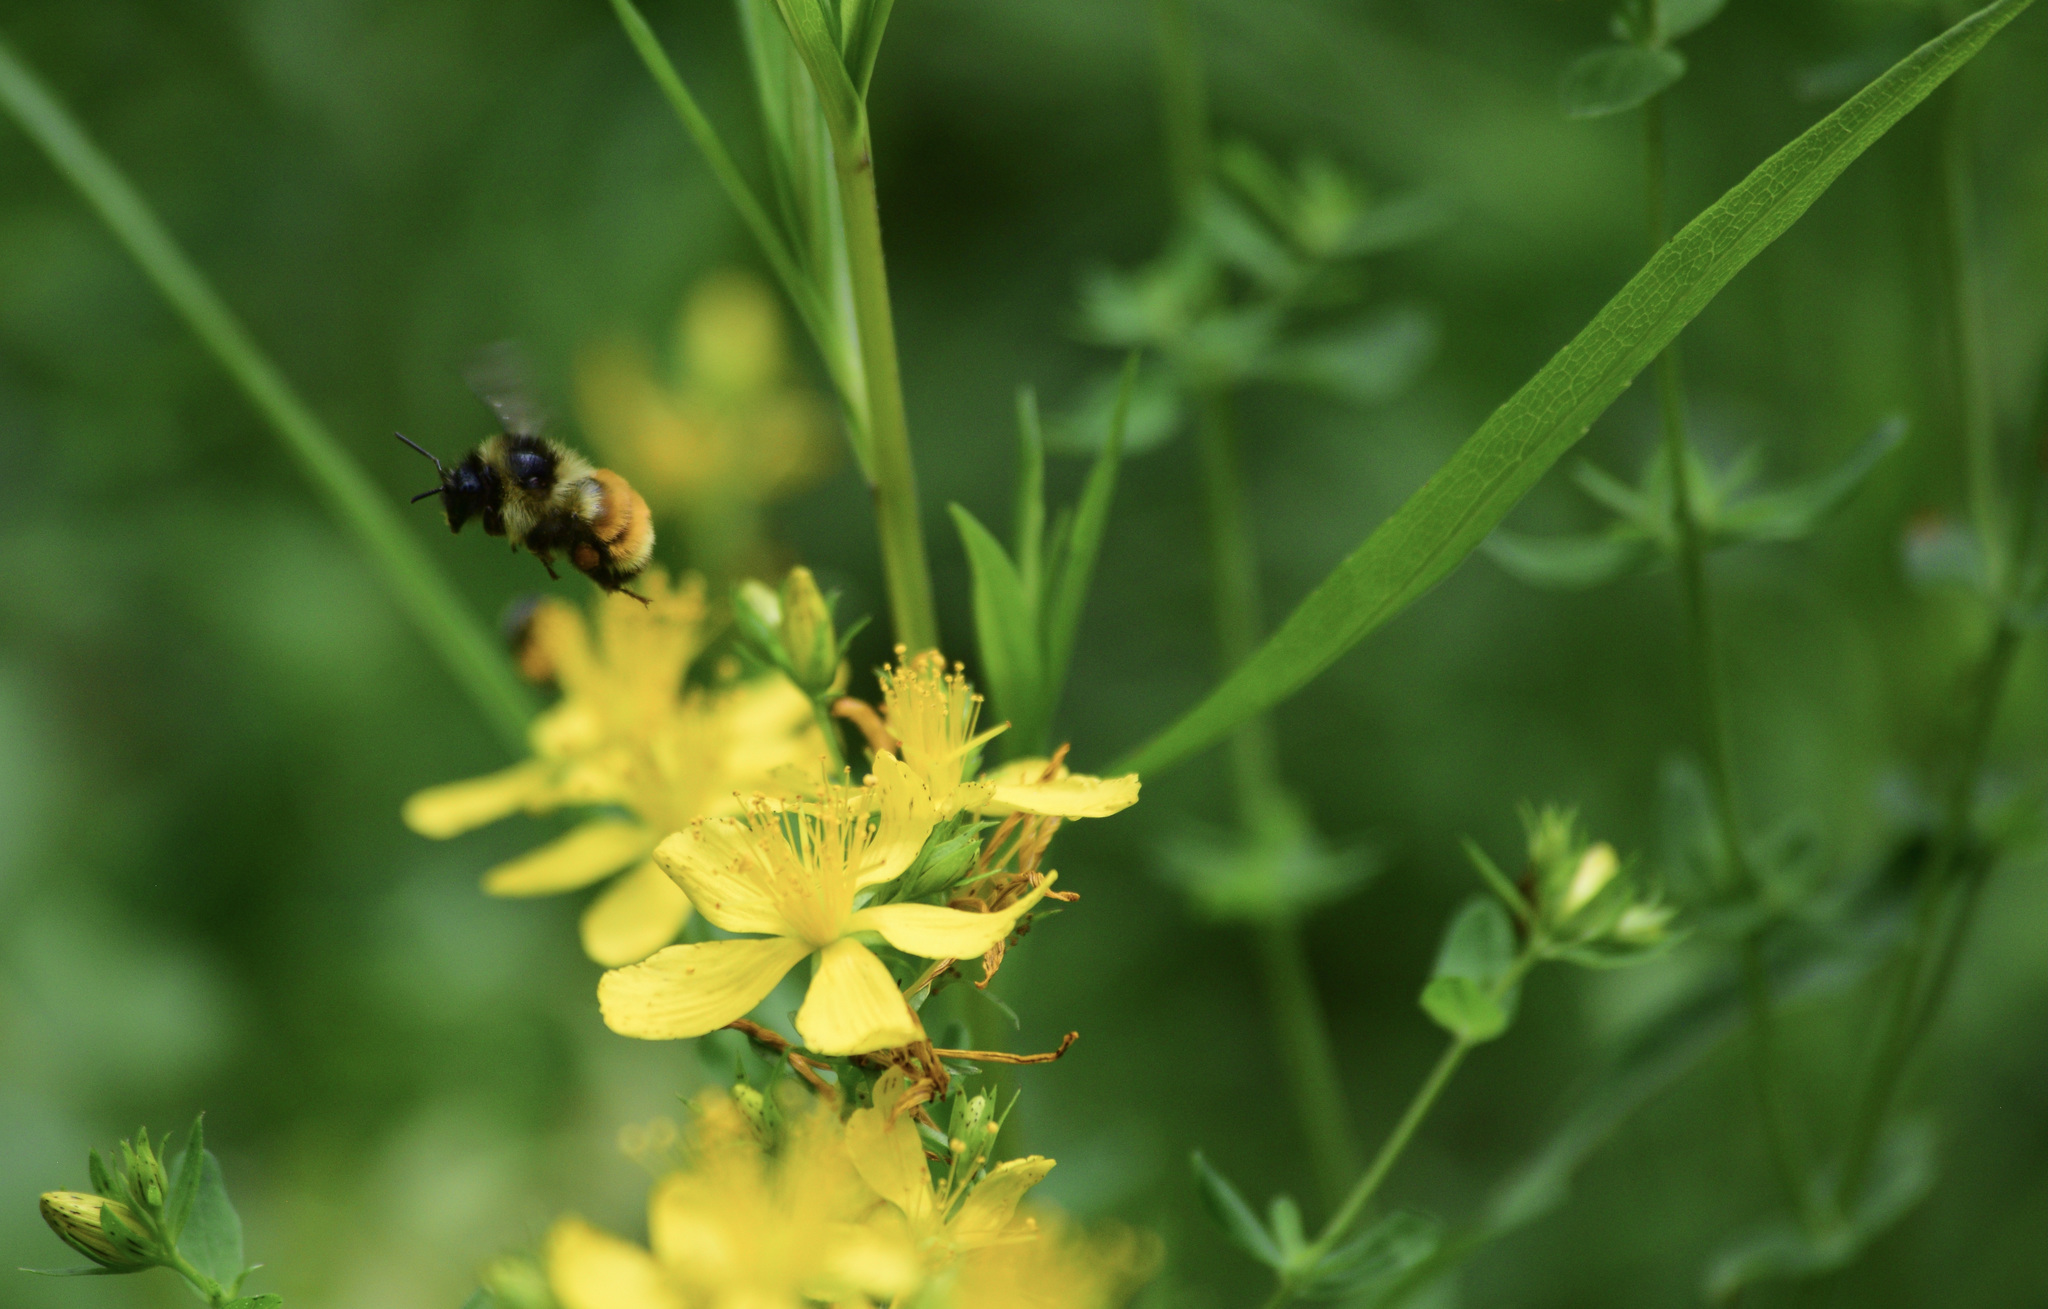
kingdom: Animalia
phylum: Arthropoda
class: Insecta
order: Hymenoptera
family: Apidae
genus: Bombus
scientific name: Bombus ternarius
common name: Tri-colored bumble bee
